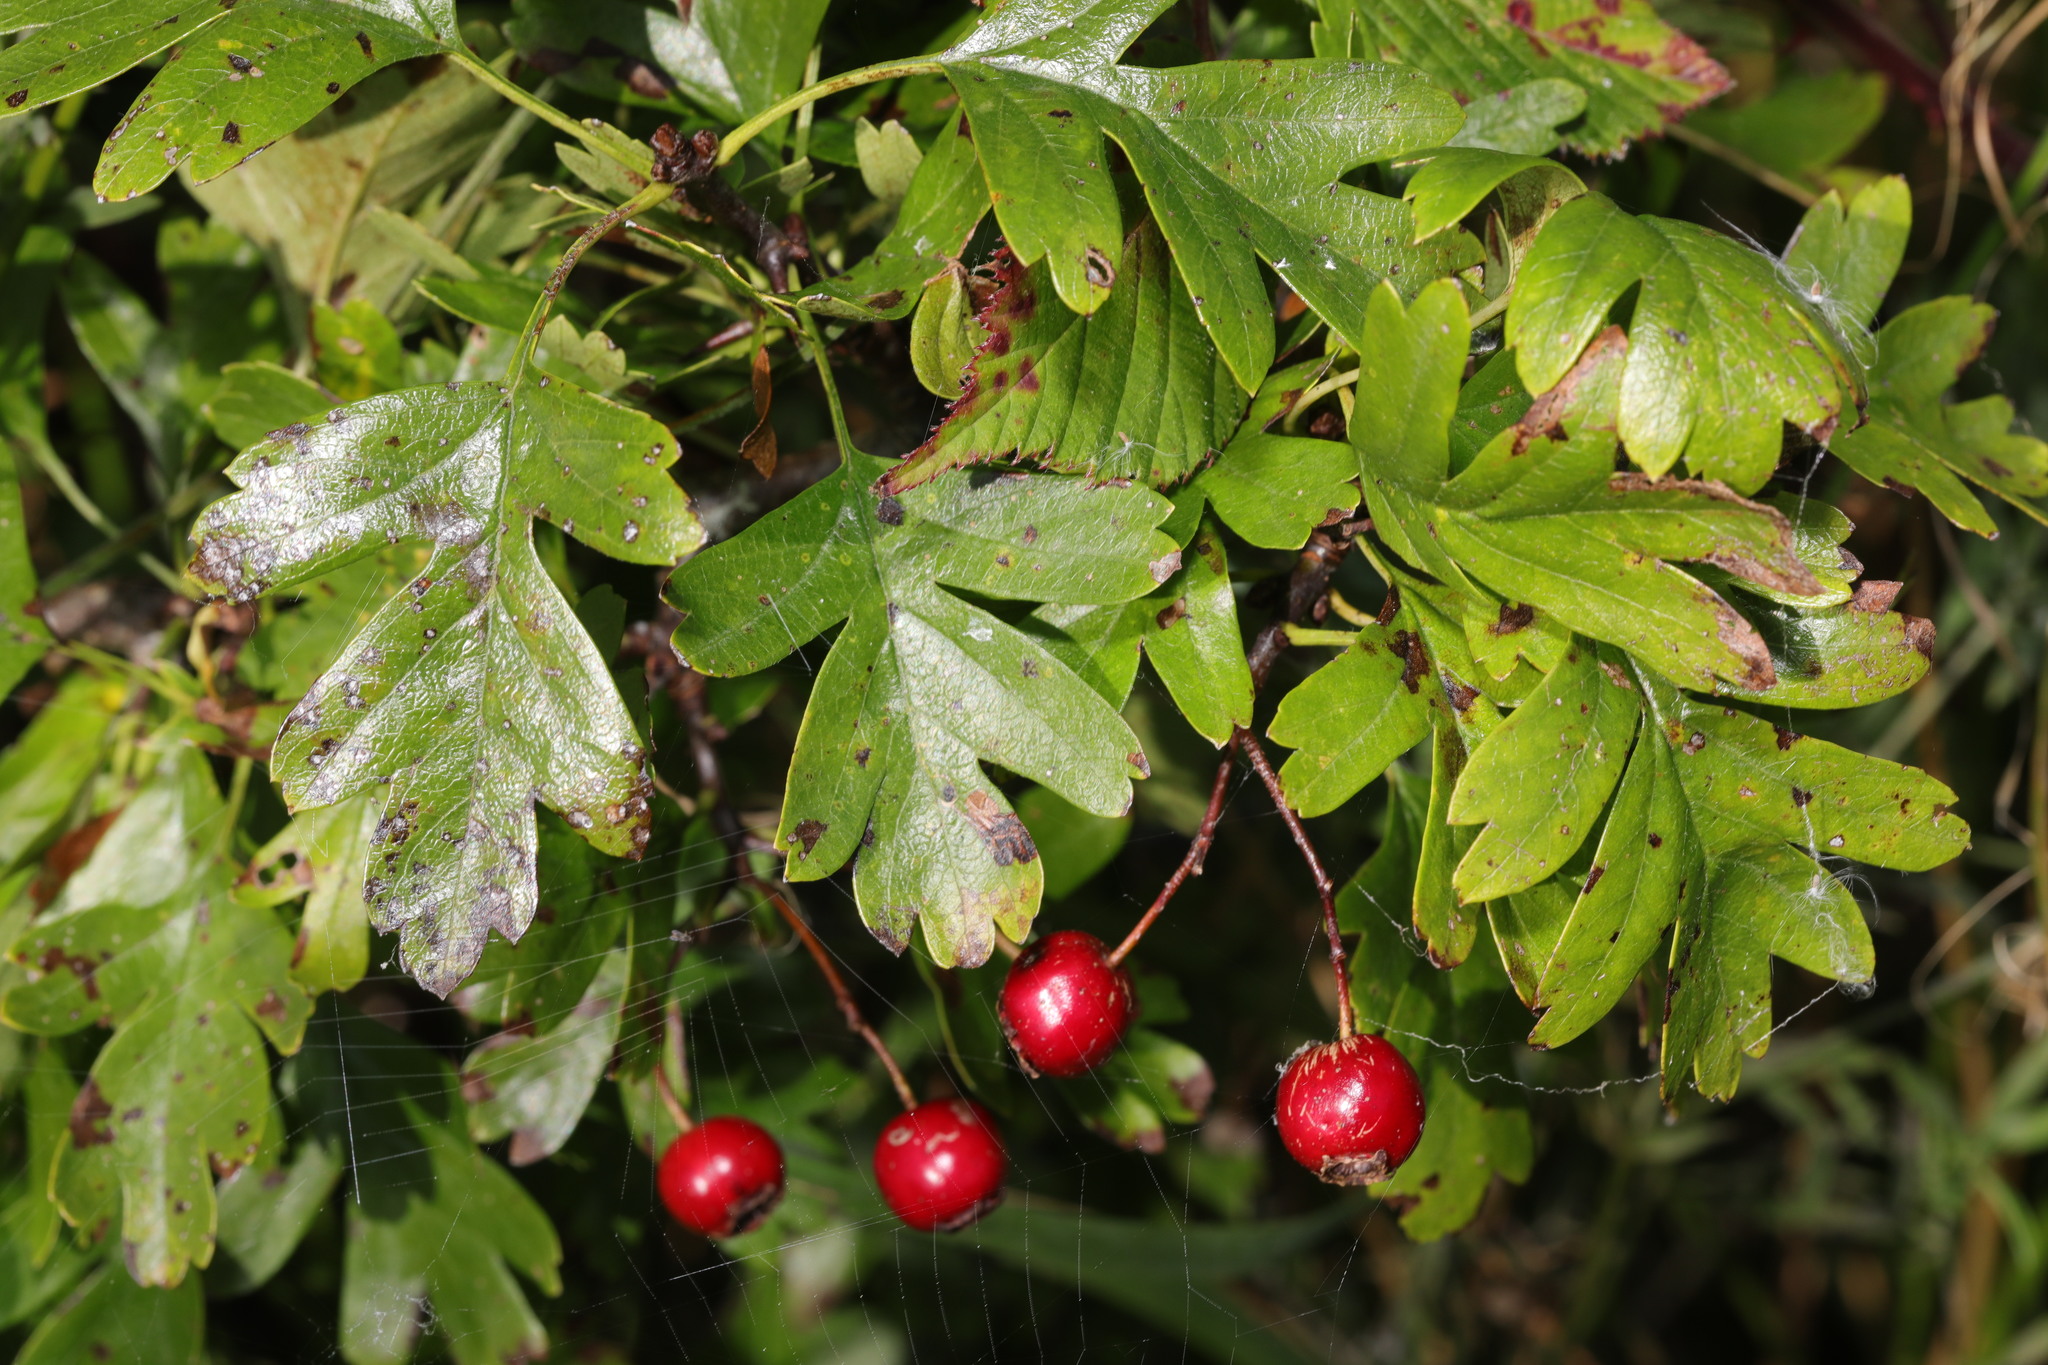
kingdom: Plantae
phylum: Tracheophyta
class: Magnoliopsida
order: Rosales
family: Rosaceae
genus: Crataegus
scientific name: Crataegus monogyna
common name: Hawthorn
